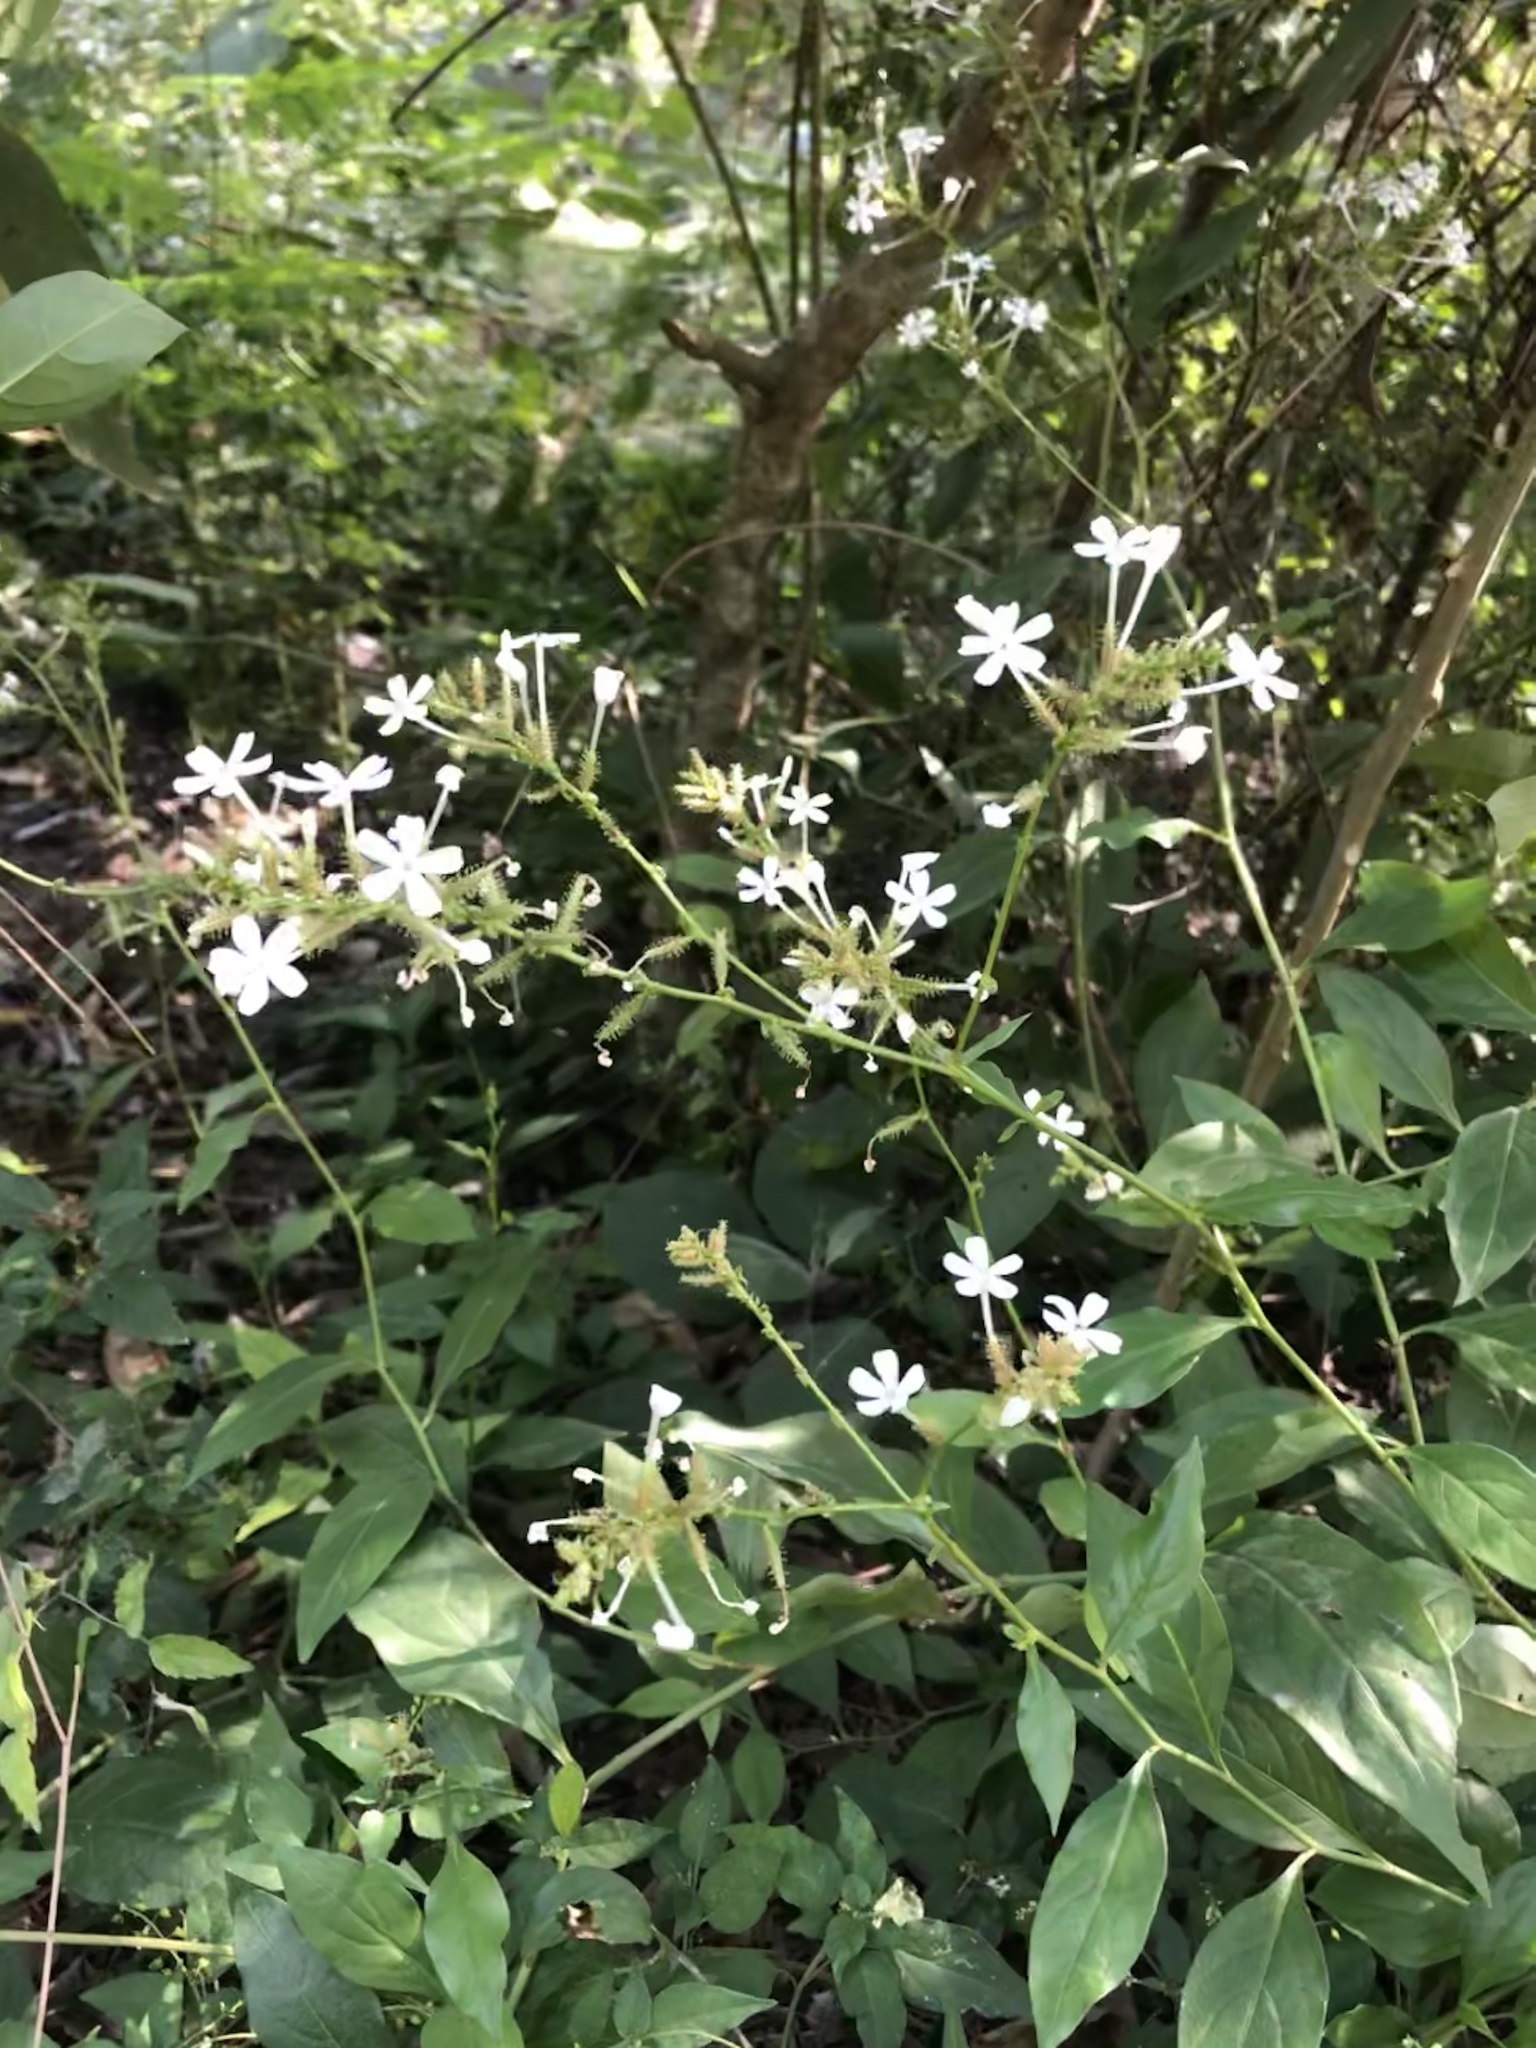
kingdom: Plantae
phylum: Tracheophyta
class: Magnoliopsida
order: Caryophyllales
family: Plumbaginaceae
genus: Plumbago
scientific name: Plumbago zeylanica
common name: Doctorbush
